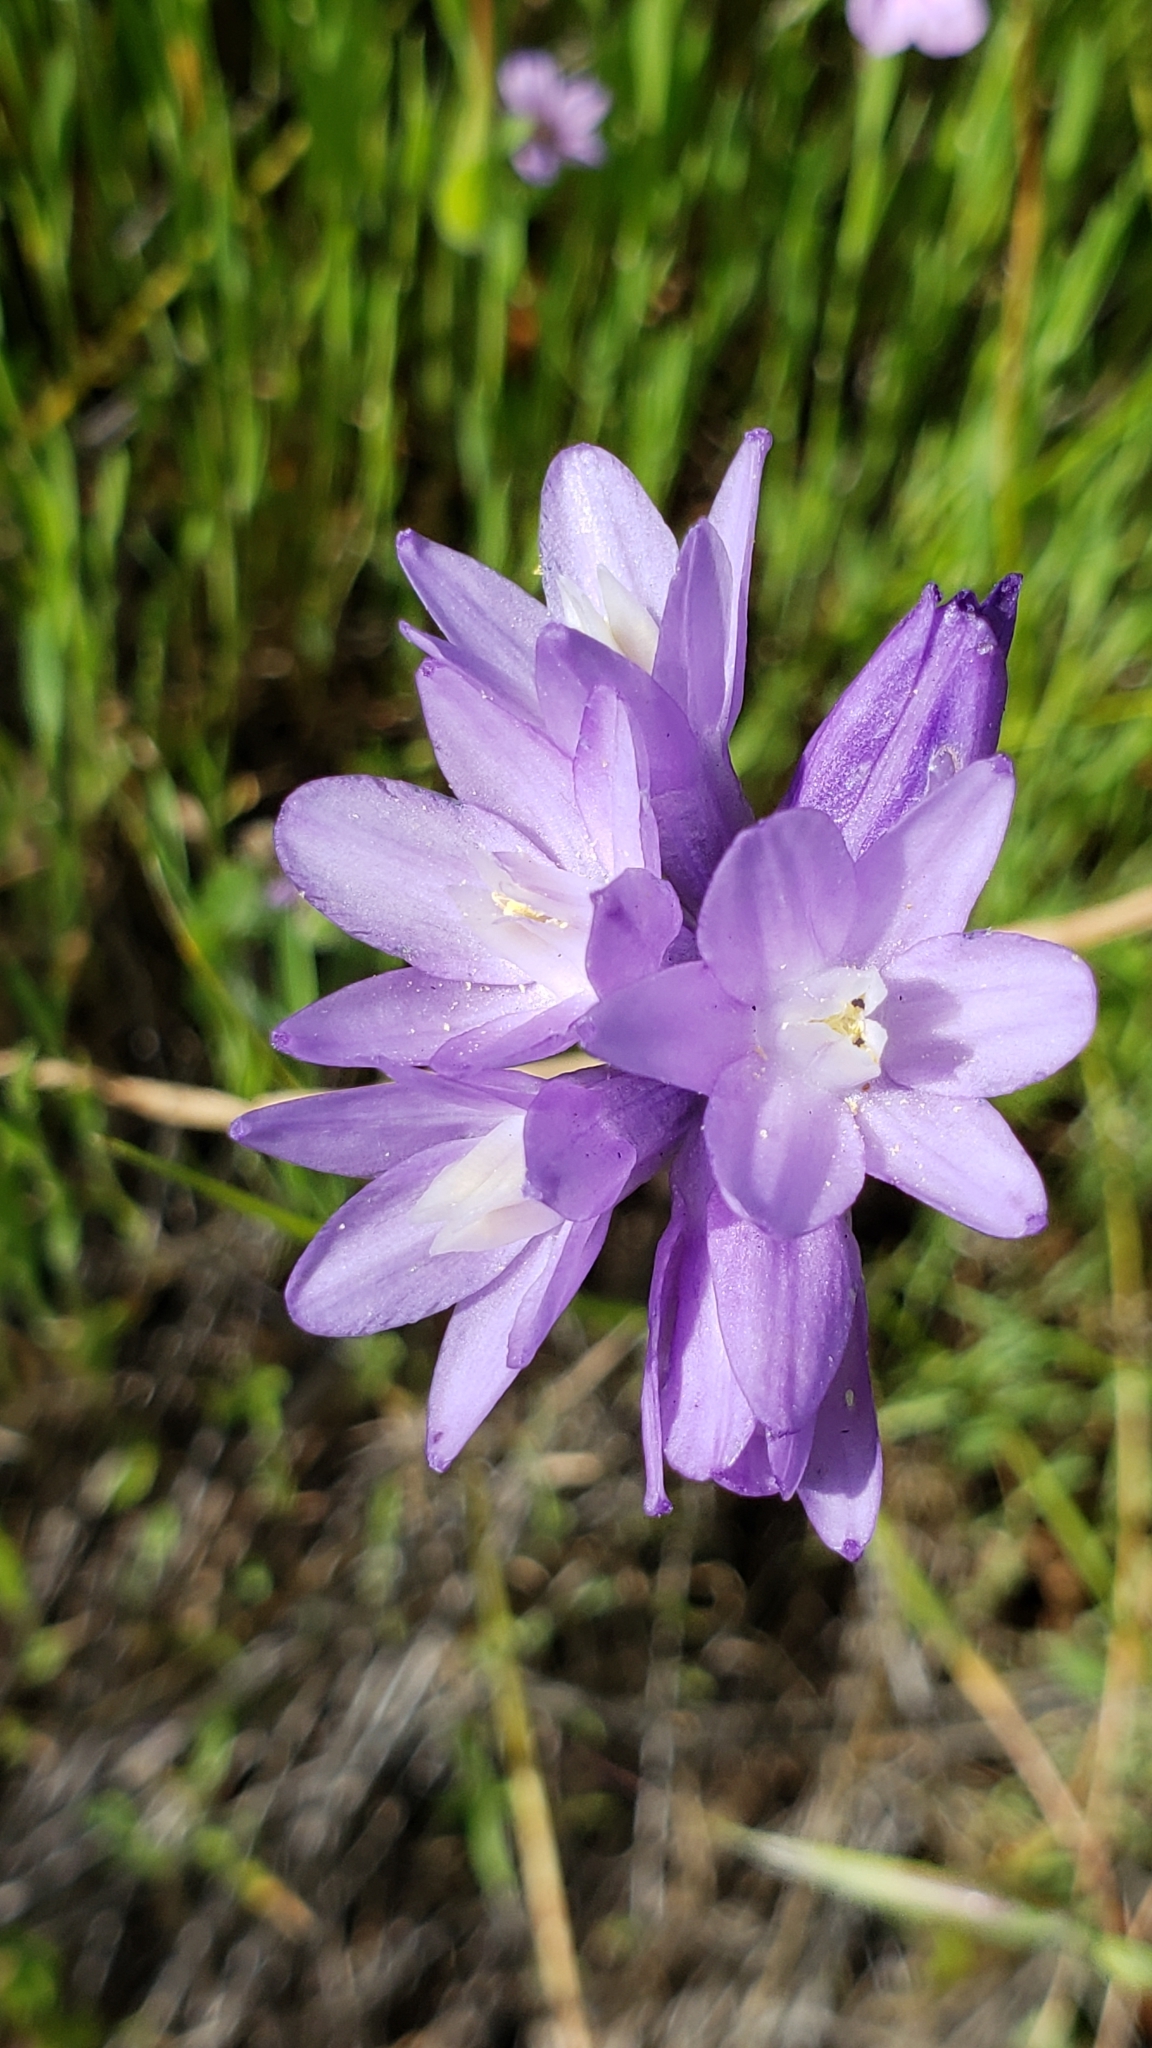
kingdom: Plantae
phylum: Tracheophyta
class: Liliopsida
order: Asparagales
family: Asparagaceae
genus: Dipterostemon
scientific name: Dipterostemon capitatus
